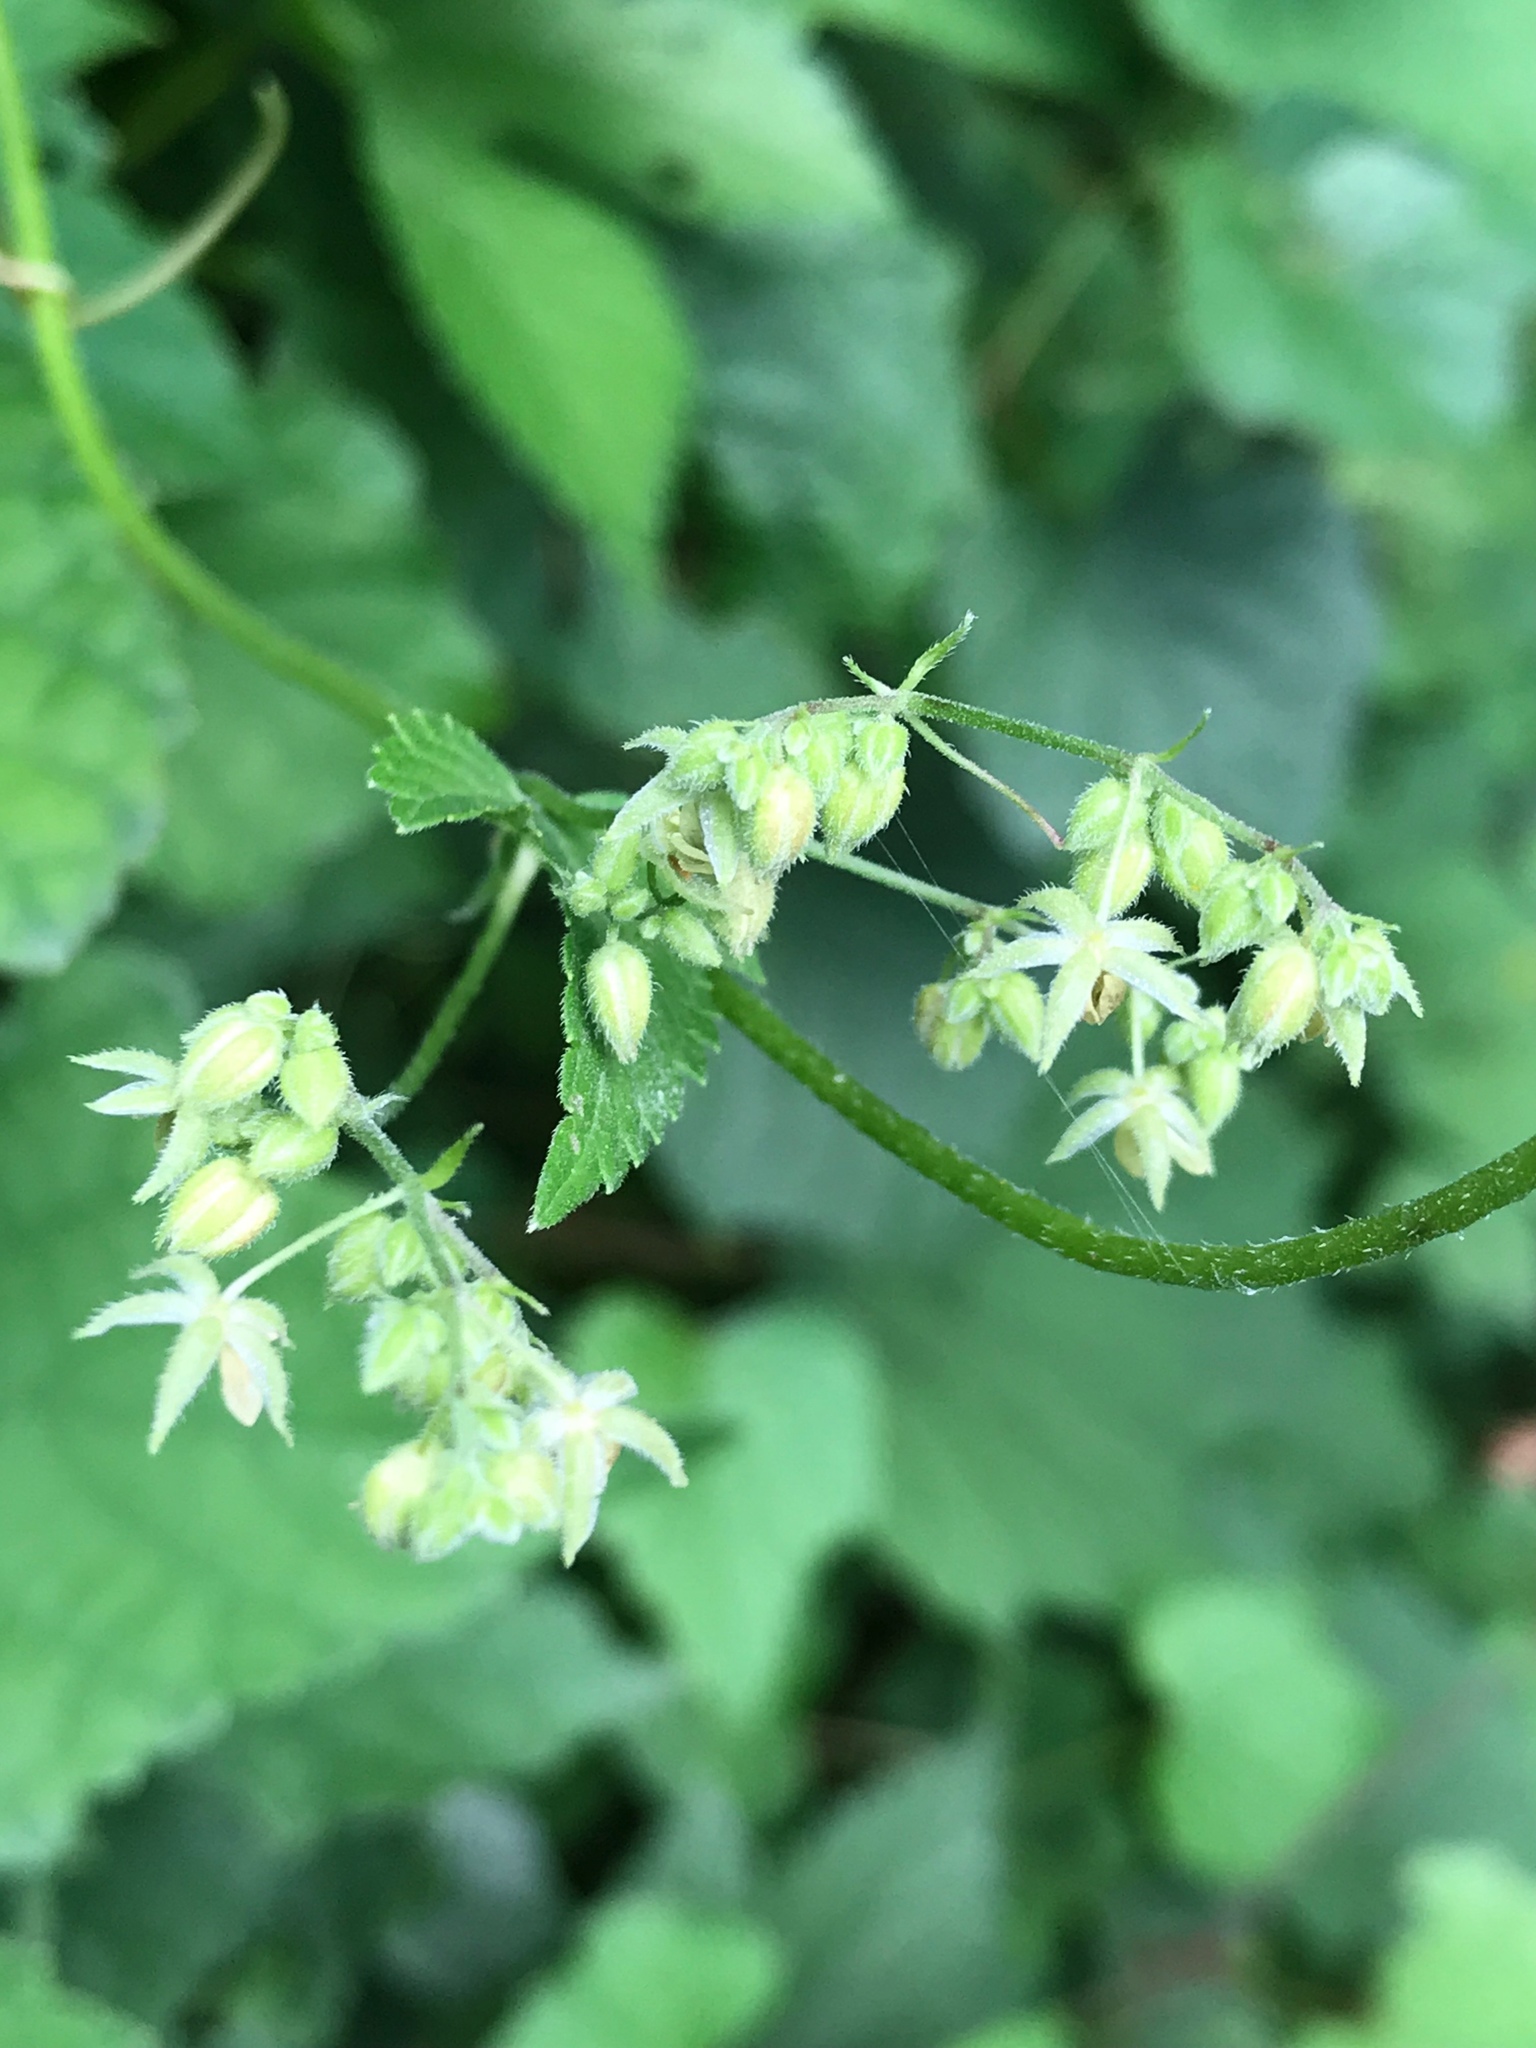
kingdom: Plantae
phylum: Tracheophyta
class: Magnoliopsida
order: Vitales
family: Vitaceae
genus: Ampelopsis
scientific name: Ampelopsis glandulosa
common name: Amur peppervine
